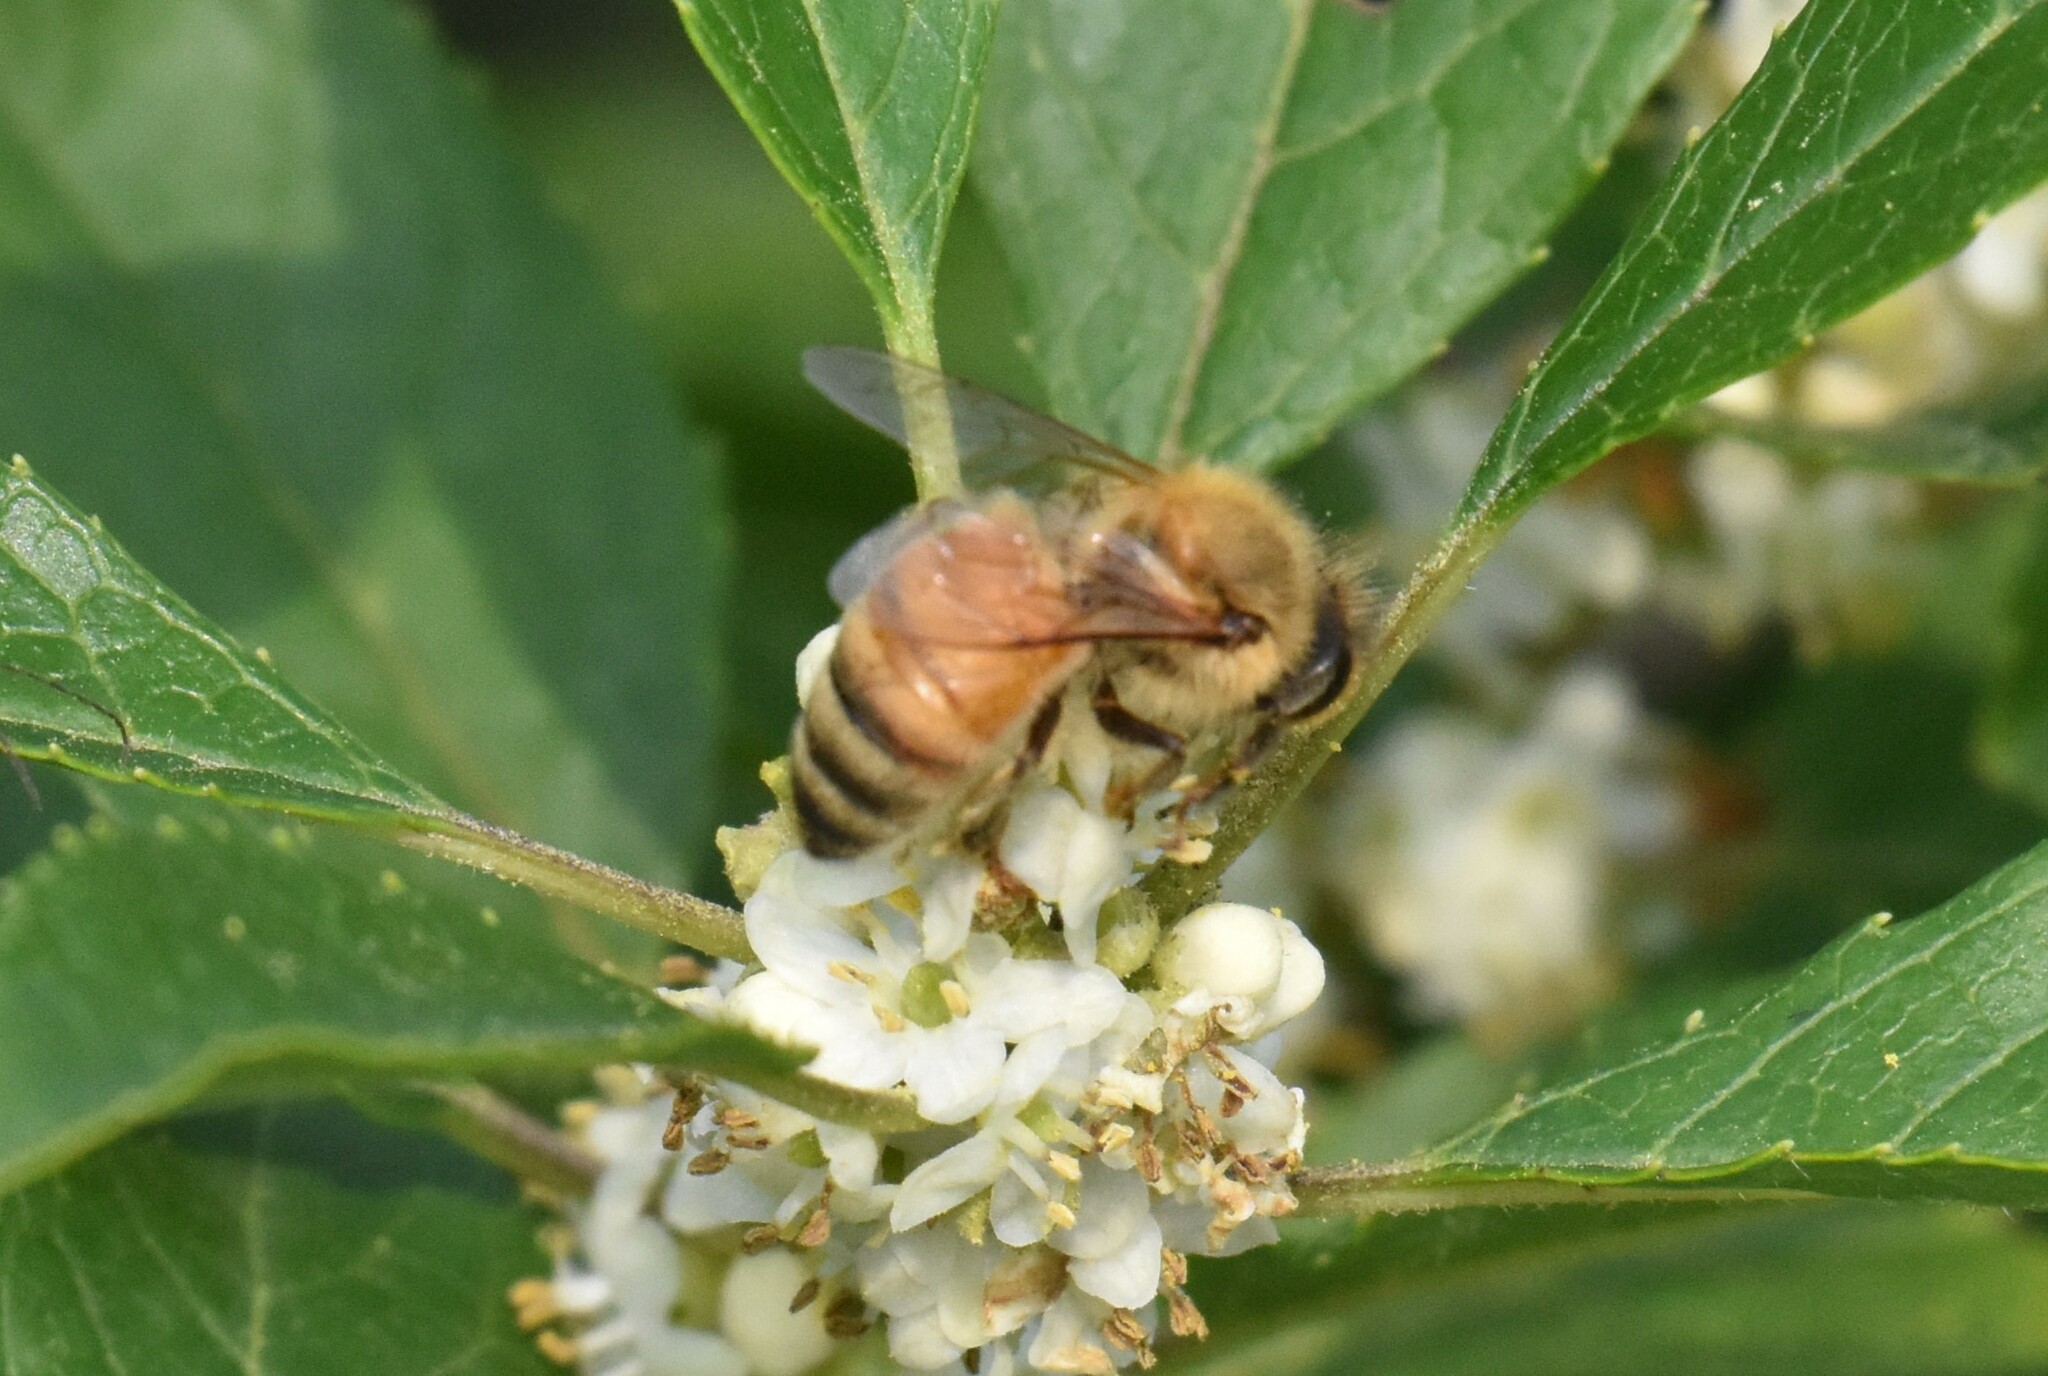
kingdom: Animalia
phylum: Arthropoda
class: Insecta
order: Hymenoptera
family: Apidae
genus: Apis
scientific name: Apis mellifera
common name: Honey bee
